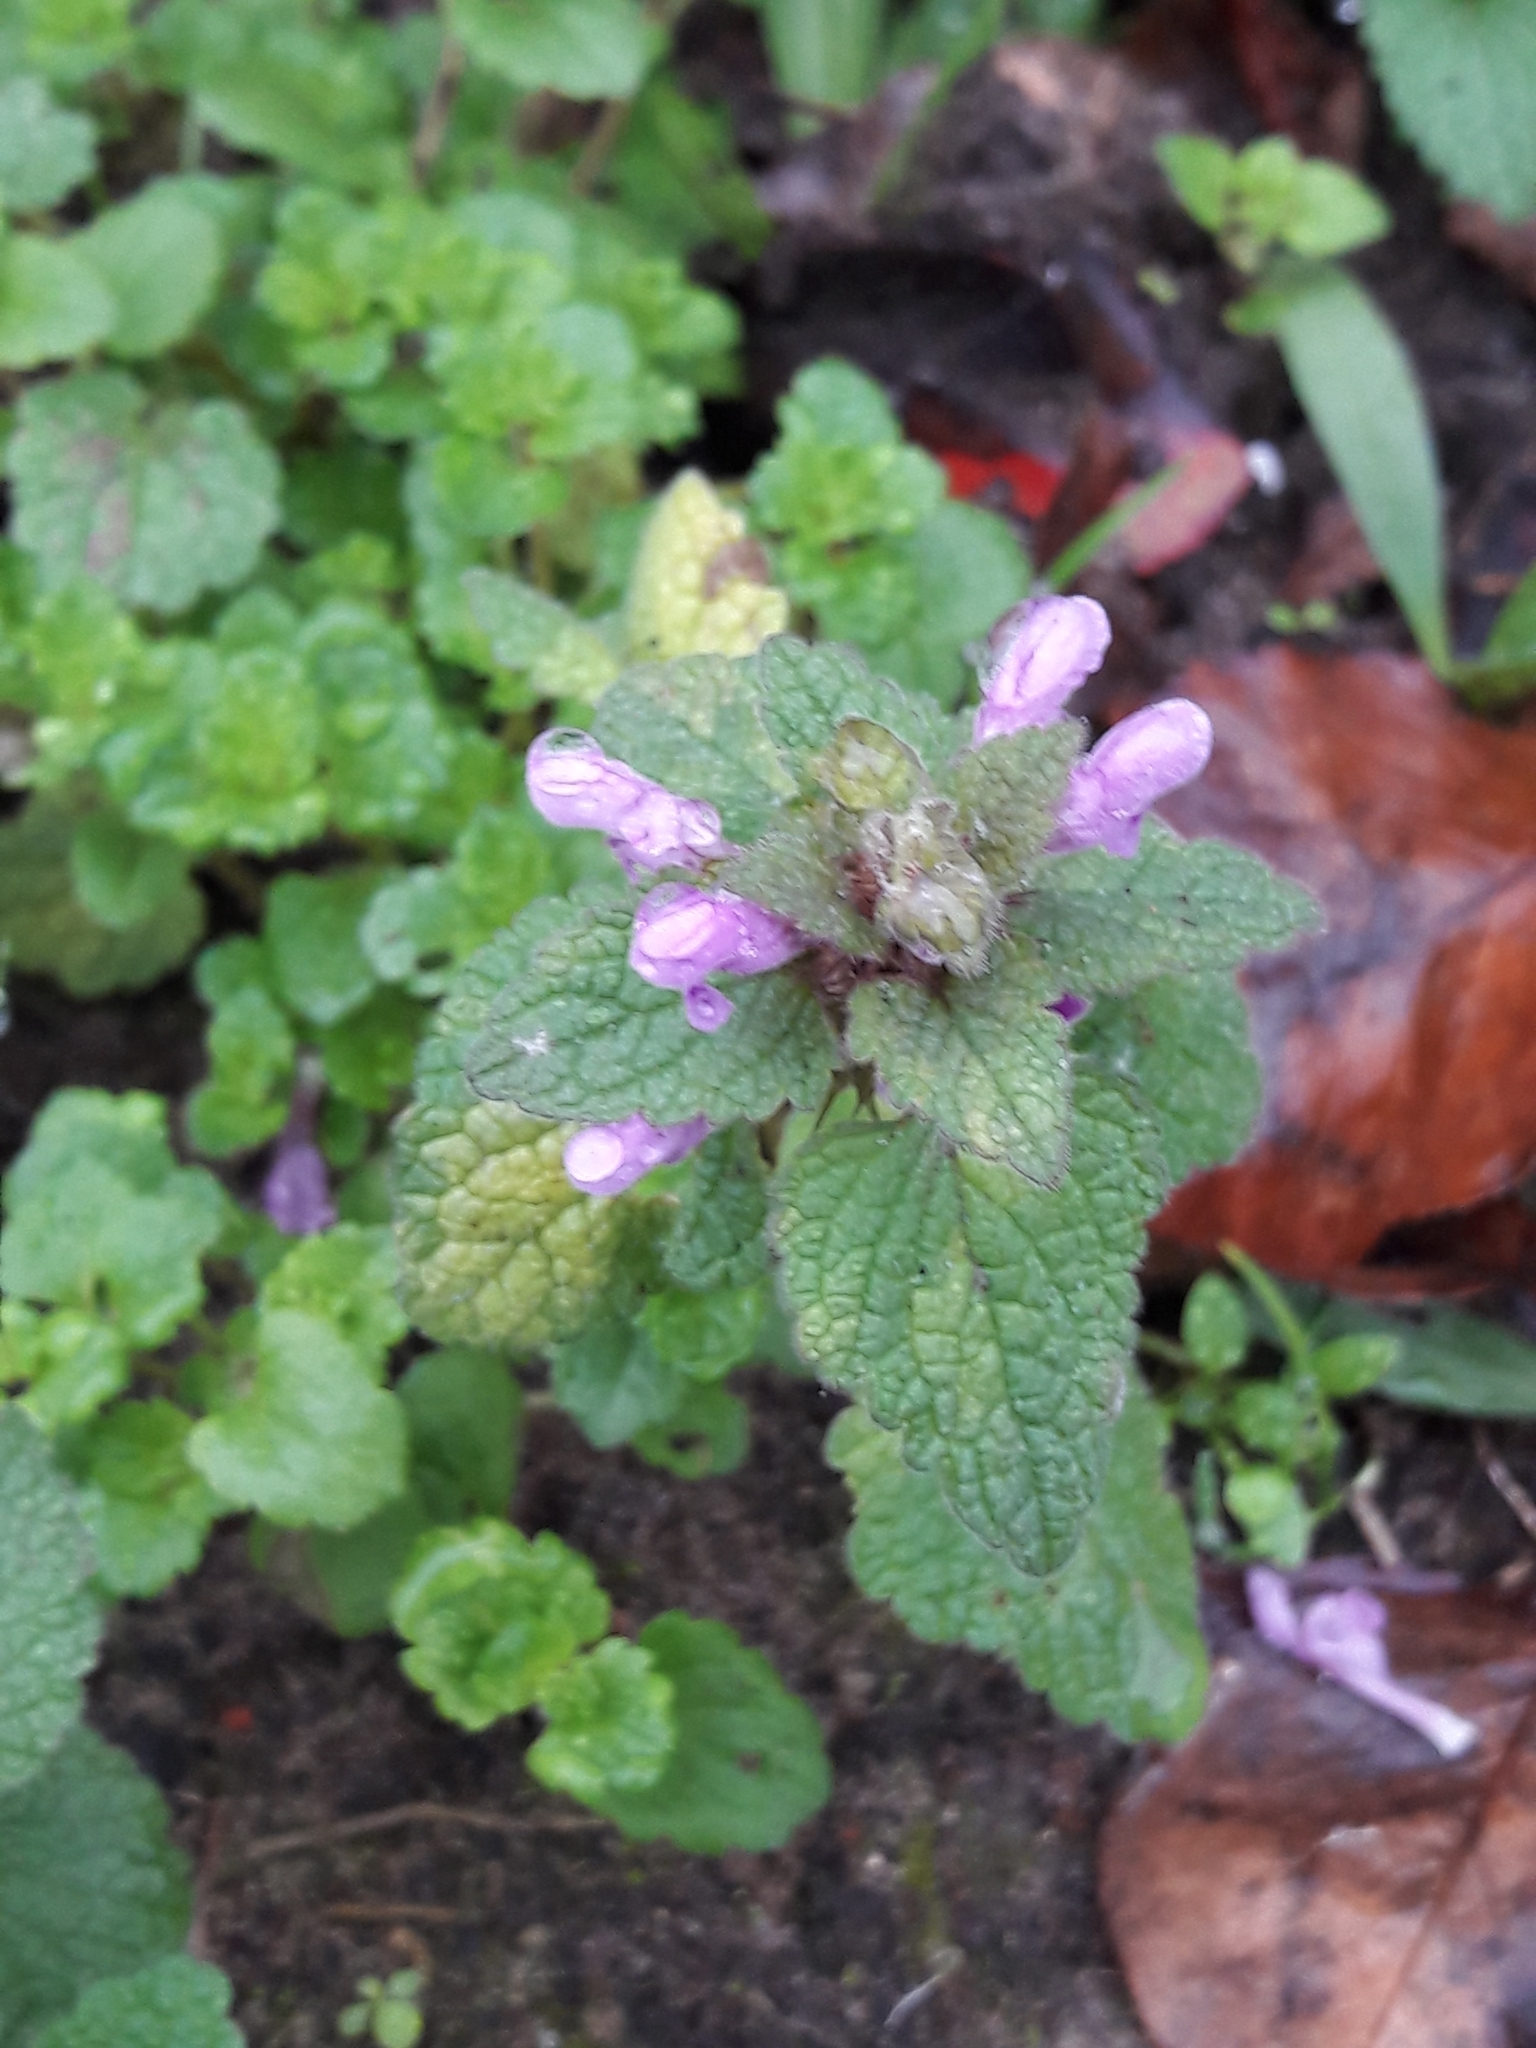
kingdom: Plantae
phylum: Tracheophyta
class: Magnoliopsida
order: Lamiales
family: Lamiaceae
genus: Lamium
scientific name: Lamium purpureum
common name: Red dead-nettle
